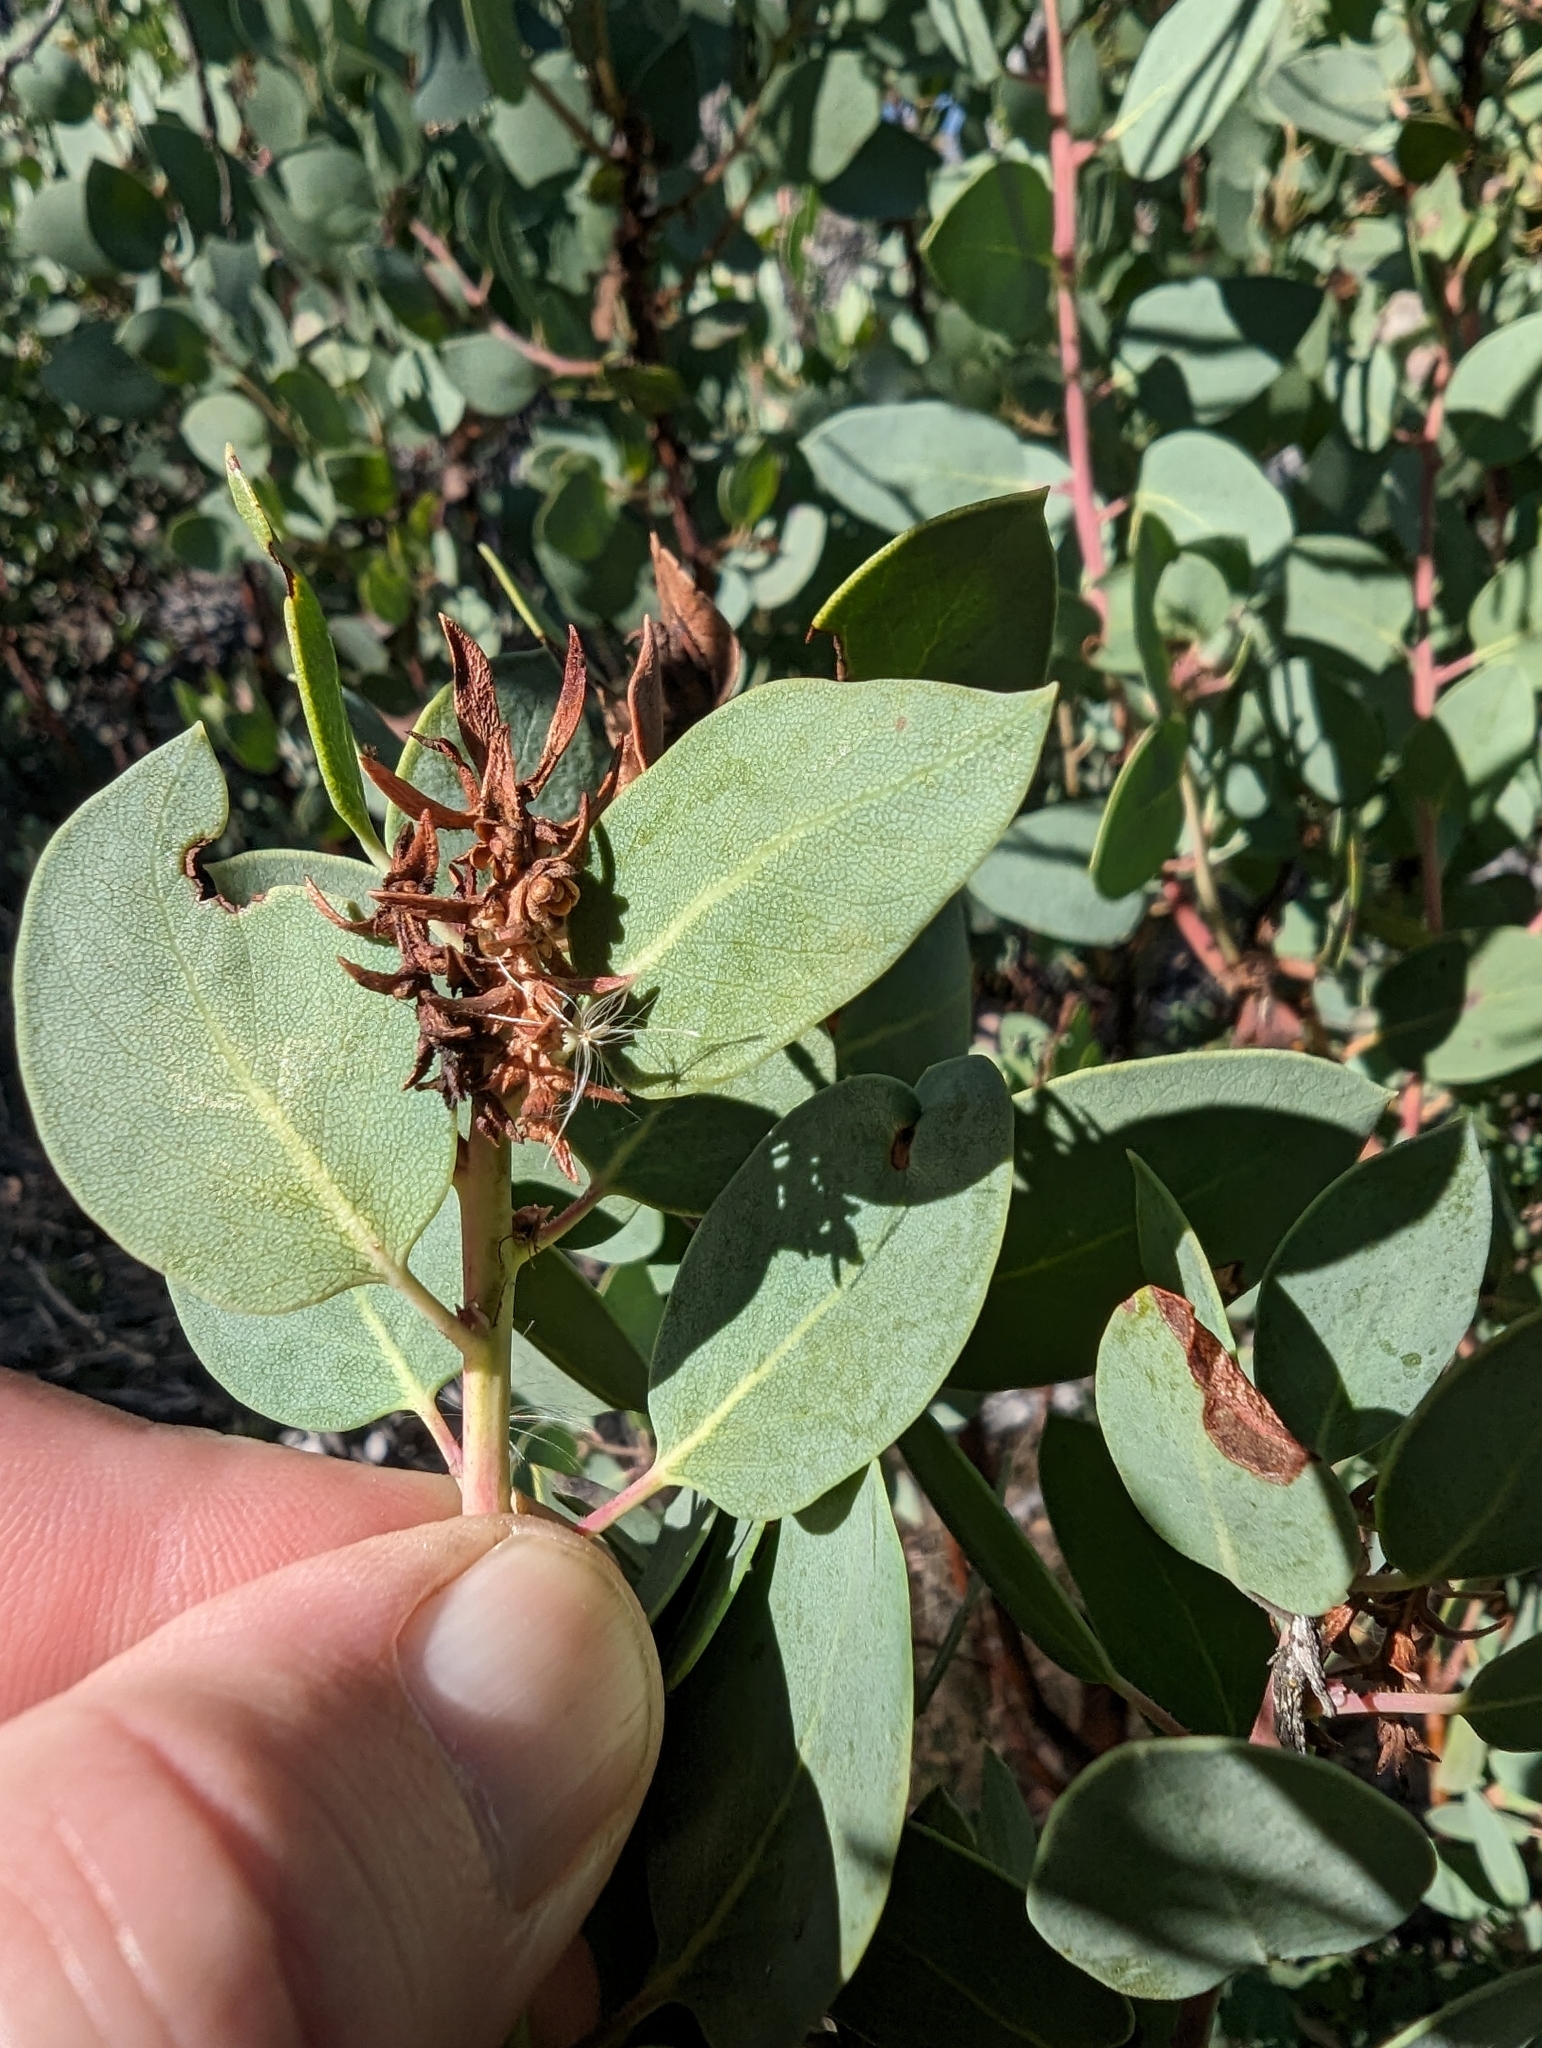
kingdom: Plantae
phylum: Tracheophyta
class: Magnoliopsida
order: Ericales
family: Ericaceae
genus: Arctostaphylos
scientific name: Arctostaphylos glauca
